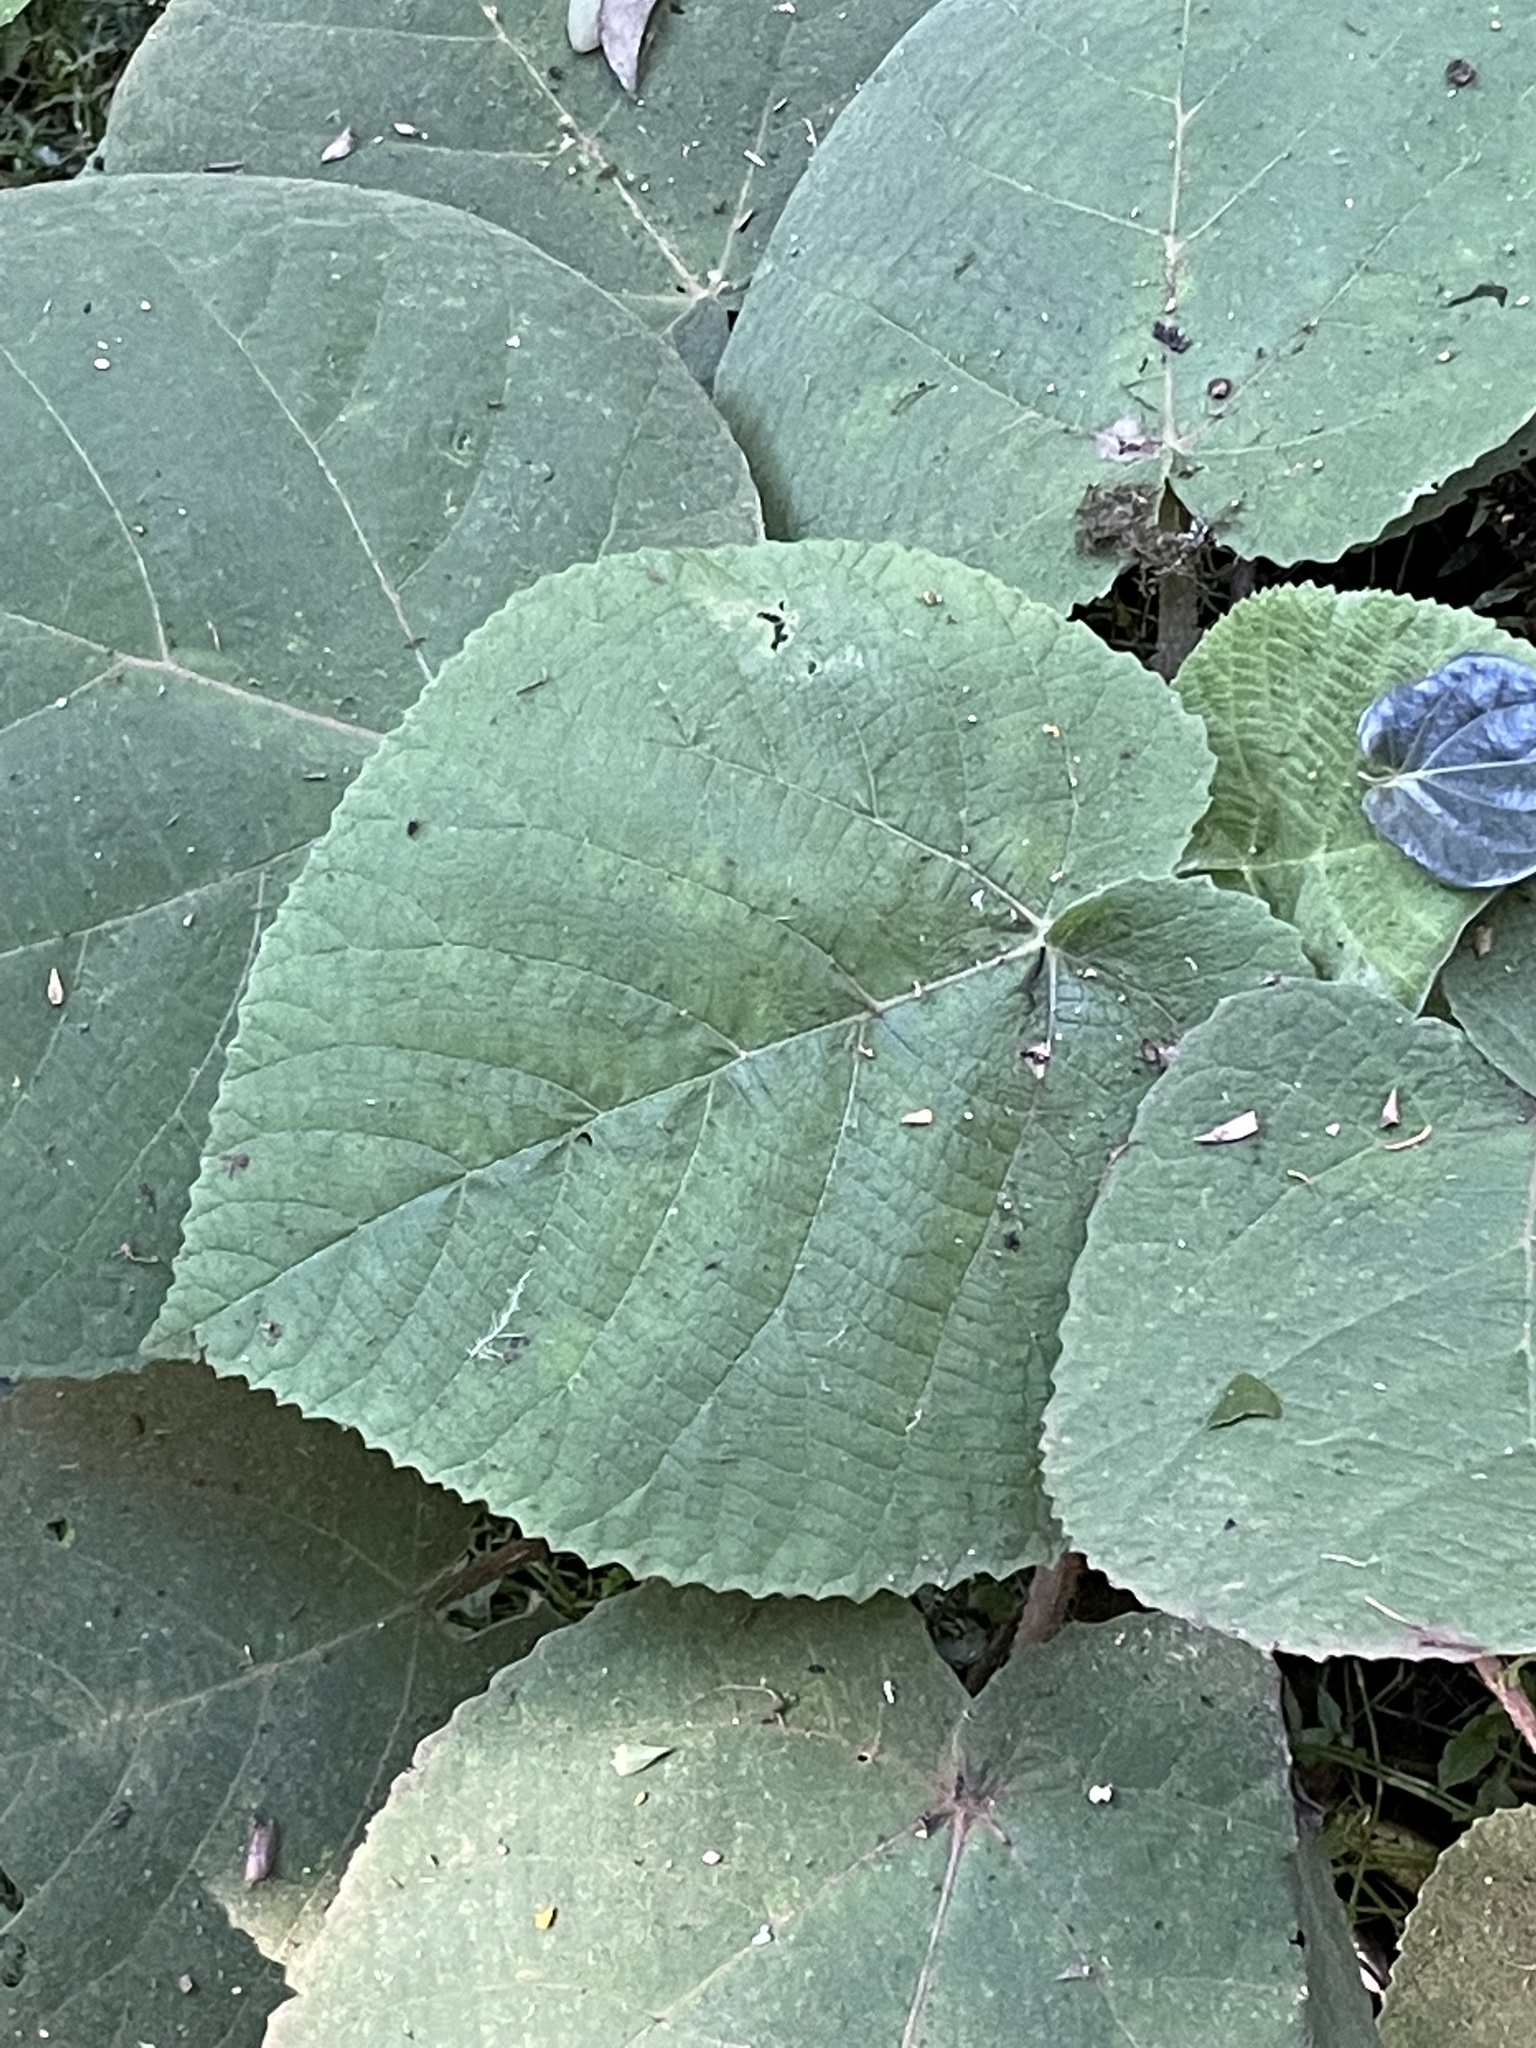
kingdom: Plantae
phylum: Tracheophyta
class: Magnoliopsida
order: Rosales
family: Urticaceae
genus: Dendrocnide
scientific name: Dendrocnide excelsa
